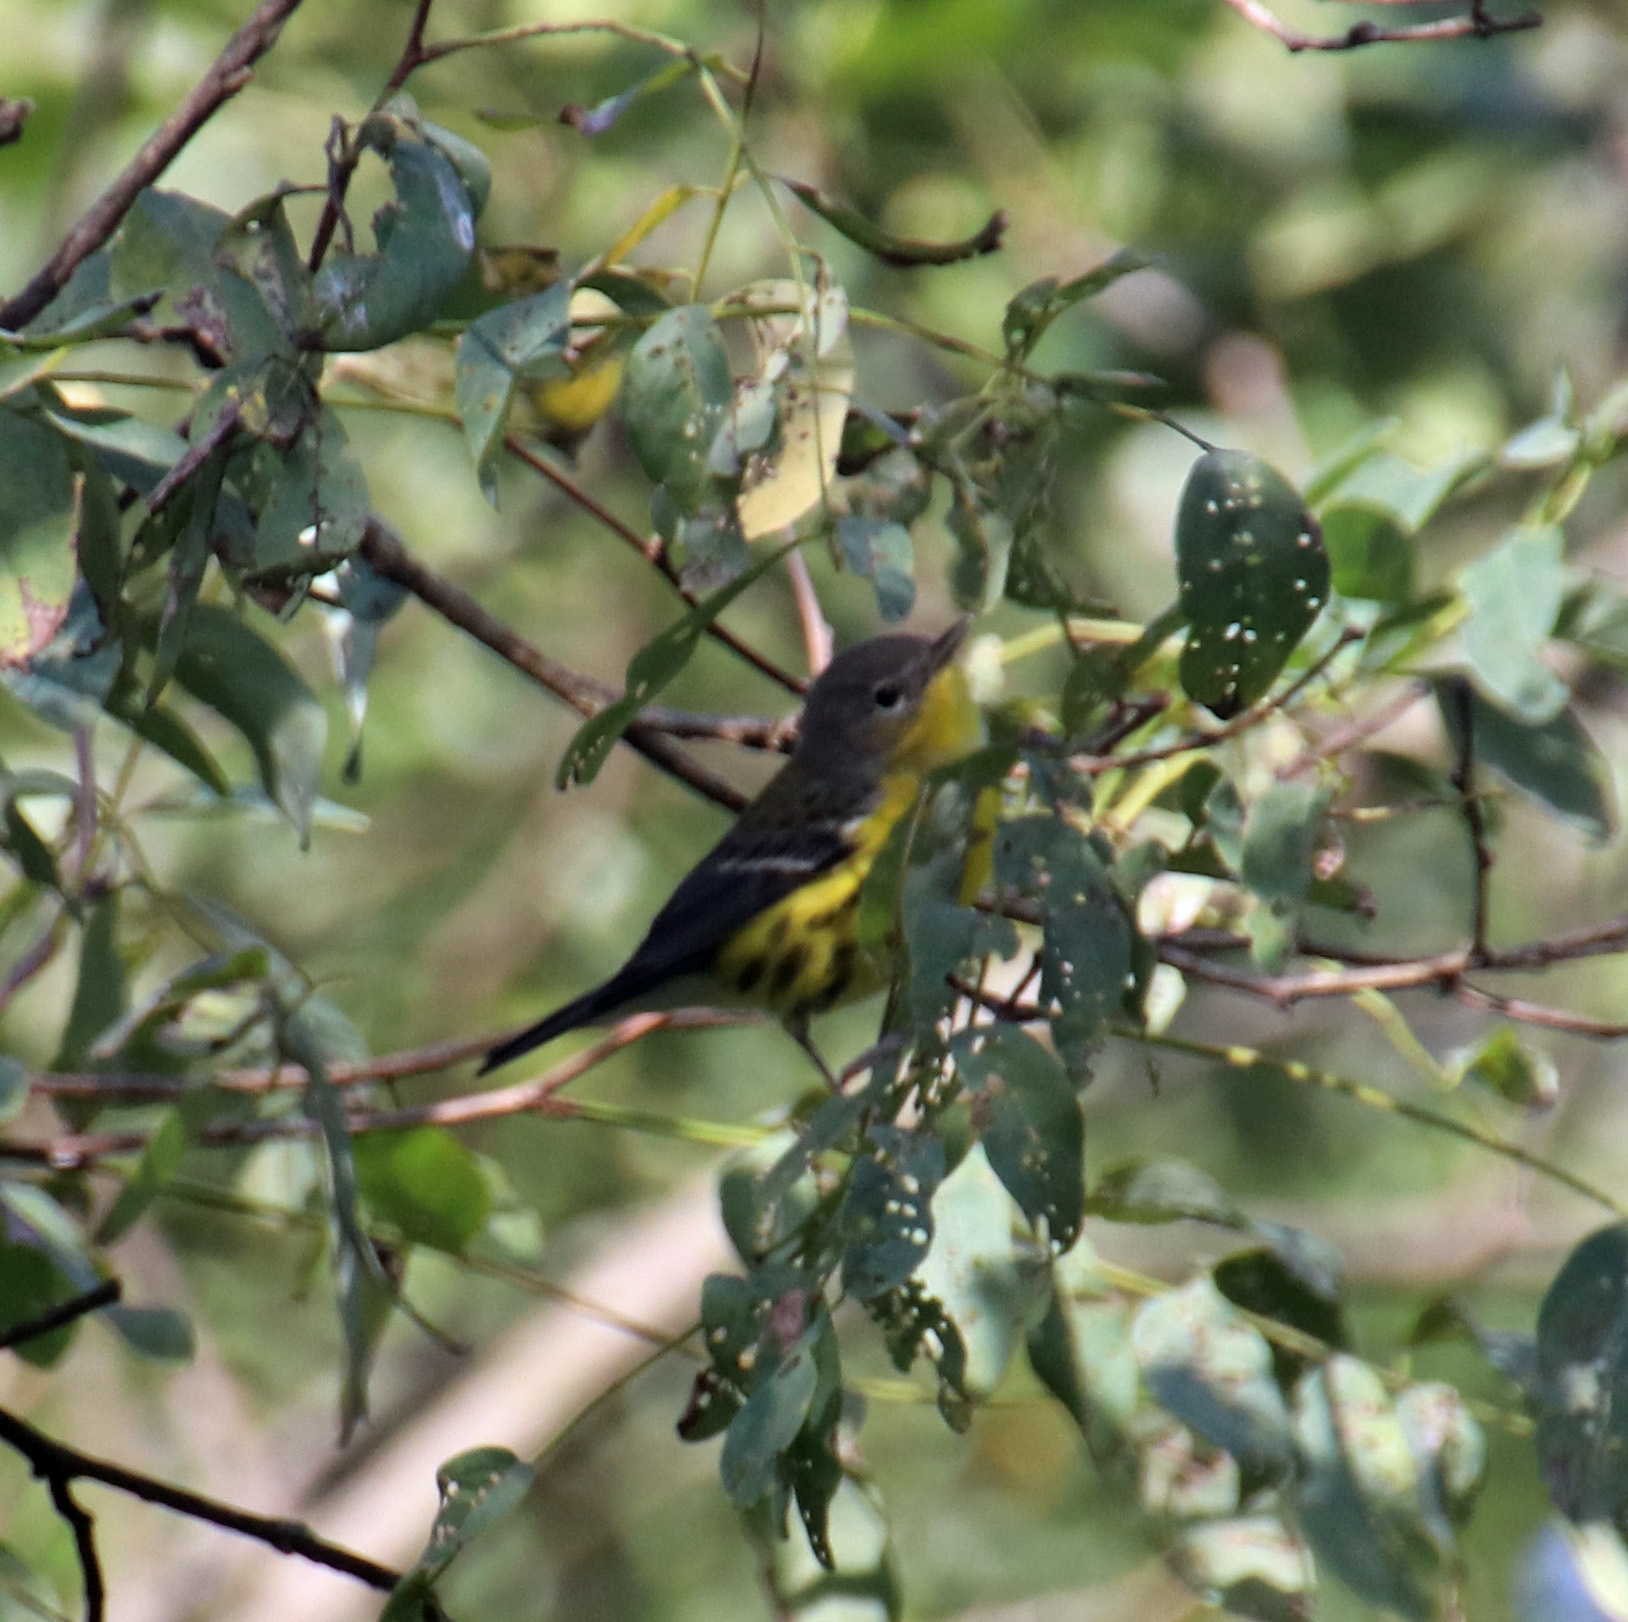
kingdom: Animalia
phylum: Chordata
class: Aves
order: Passeriformes
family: Parulidae
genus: Setophaga
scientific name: Setophaga magnolia
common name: Magnolia warbler
